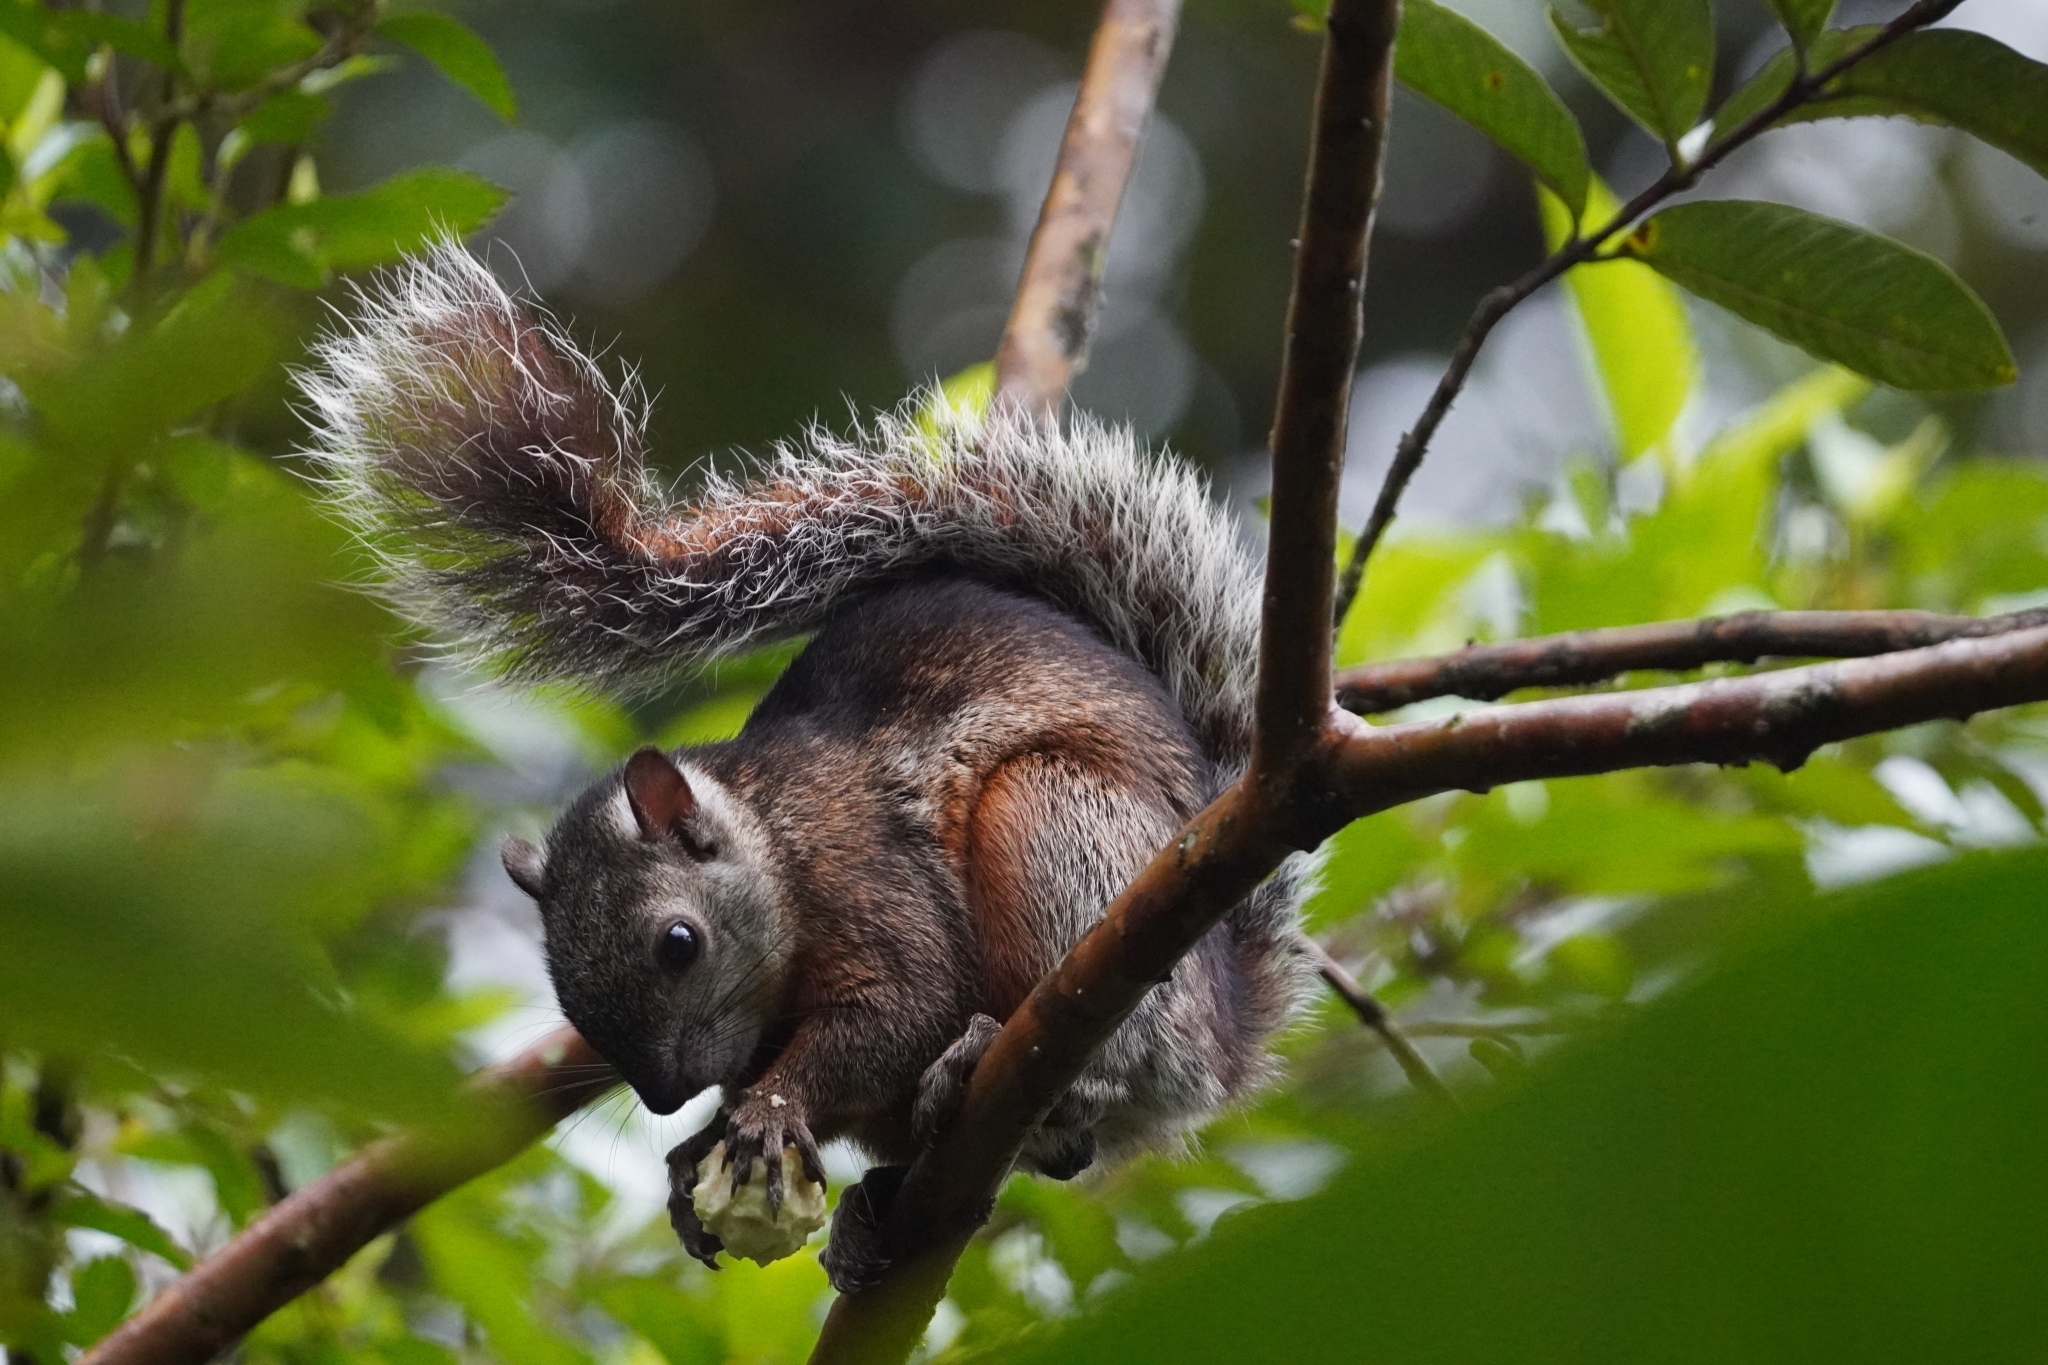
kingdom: Animalia
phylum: Chordata
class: Mammalia
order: Rodentia
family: Sciuridae
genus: Sciurus
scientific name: Sciurus variegatoides
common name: Variegated squirrel
